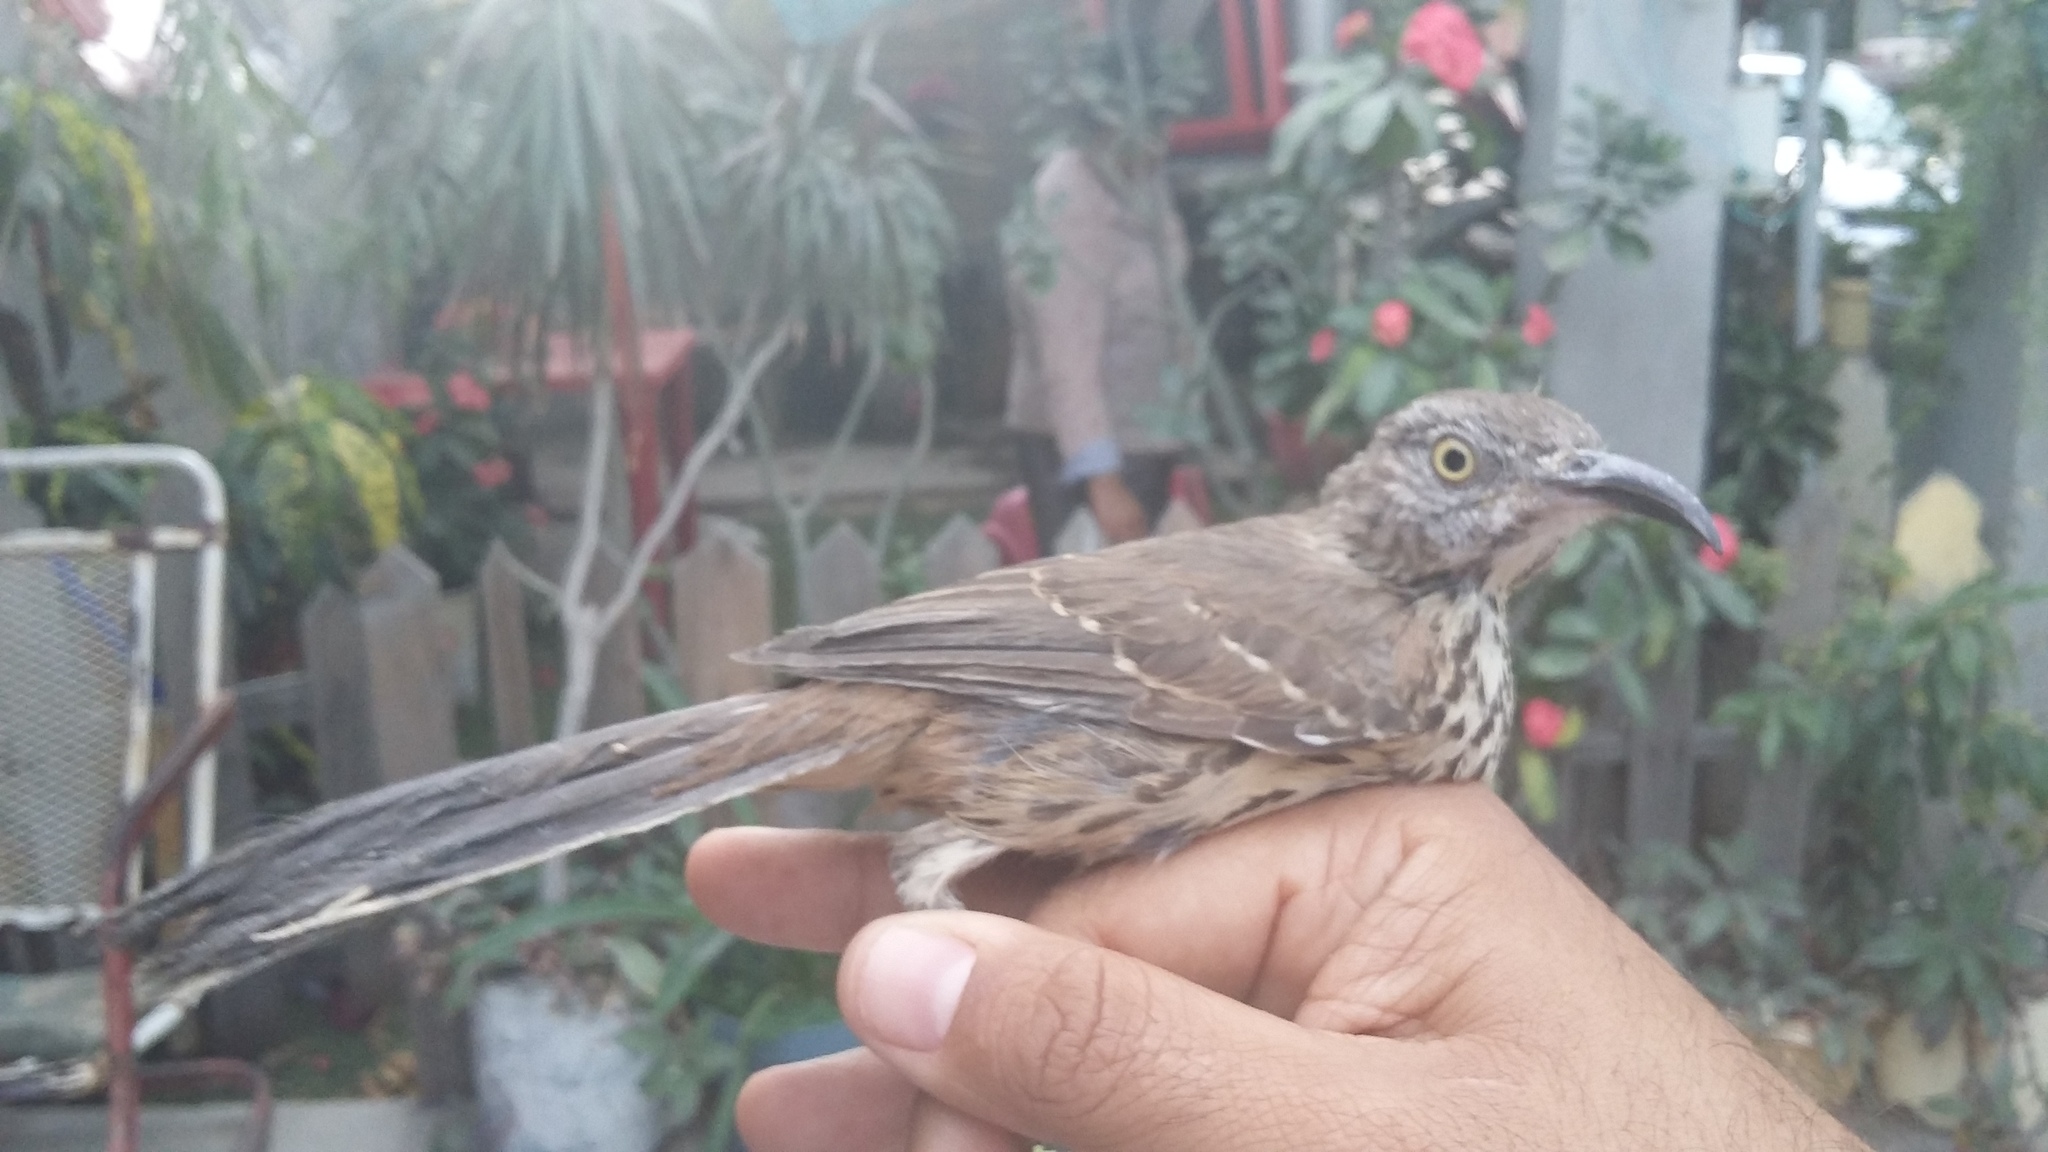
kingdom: Animalia
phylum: Chordata
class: Aves
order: Passeriformes
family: Mimidae
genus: Toxostoma
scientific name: Toxostoma cinereum
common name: Gray thrasher
